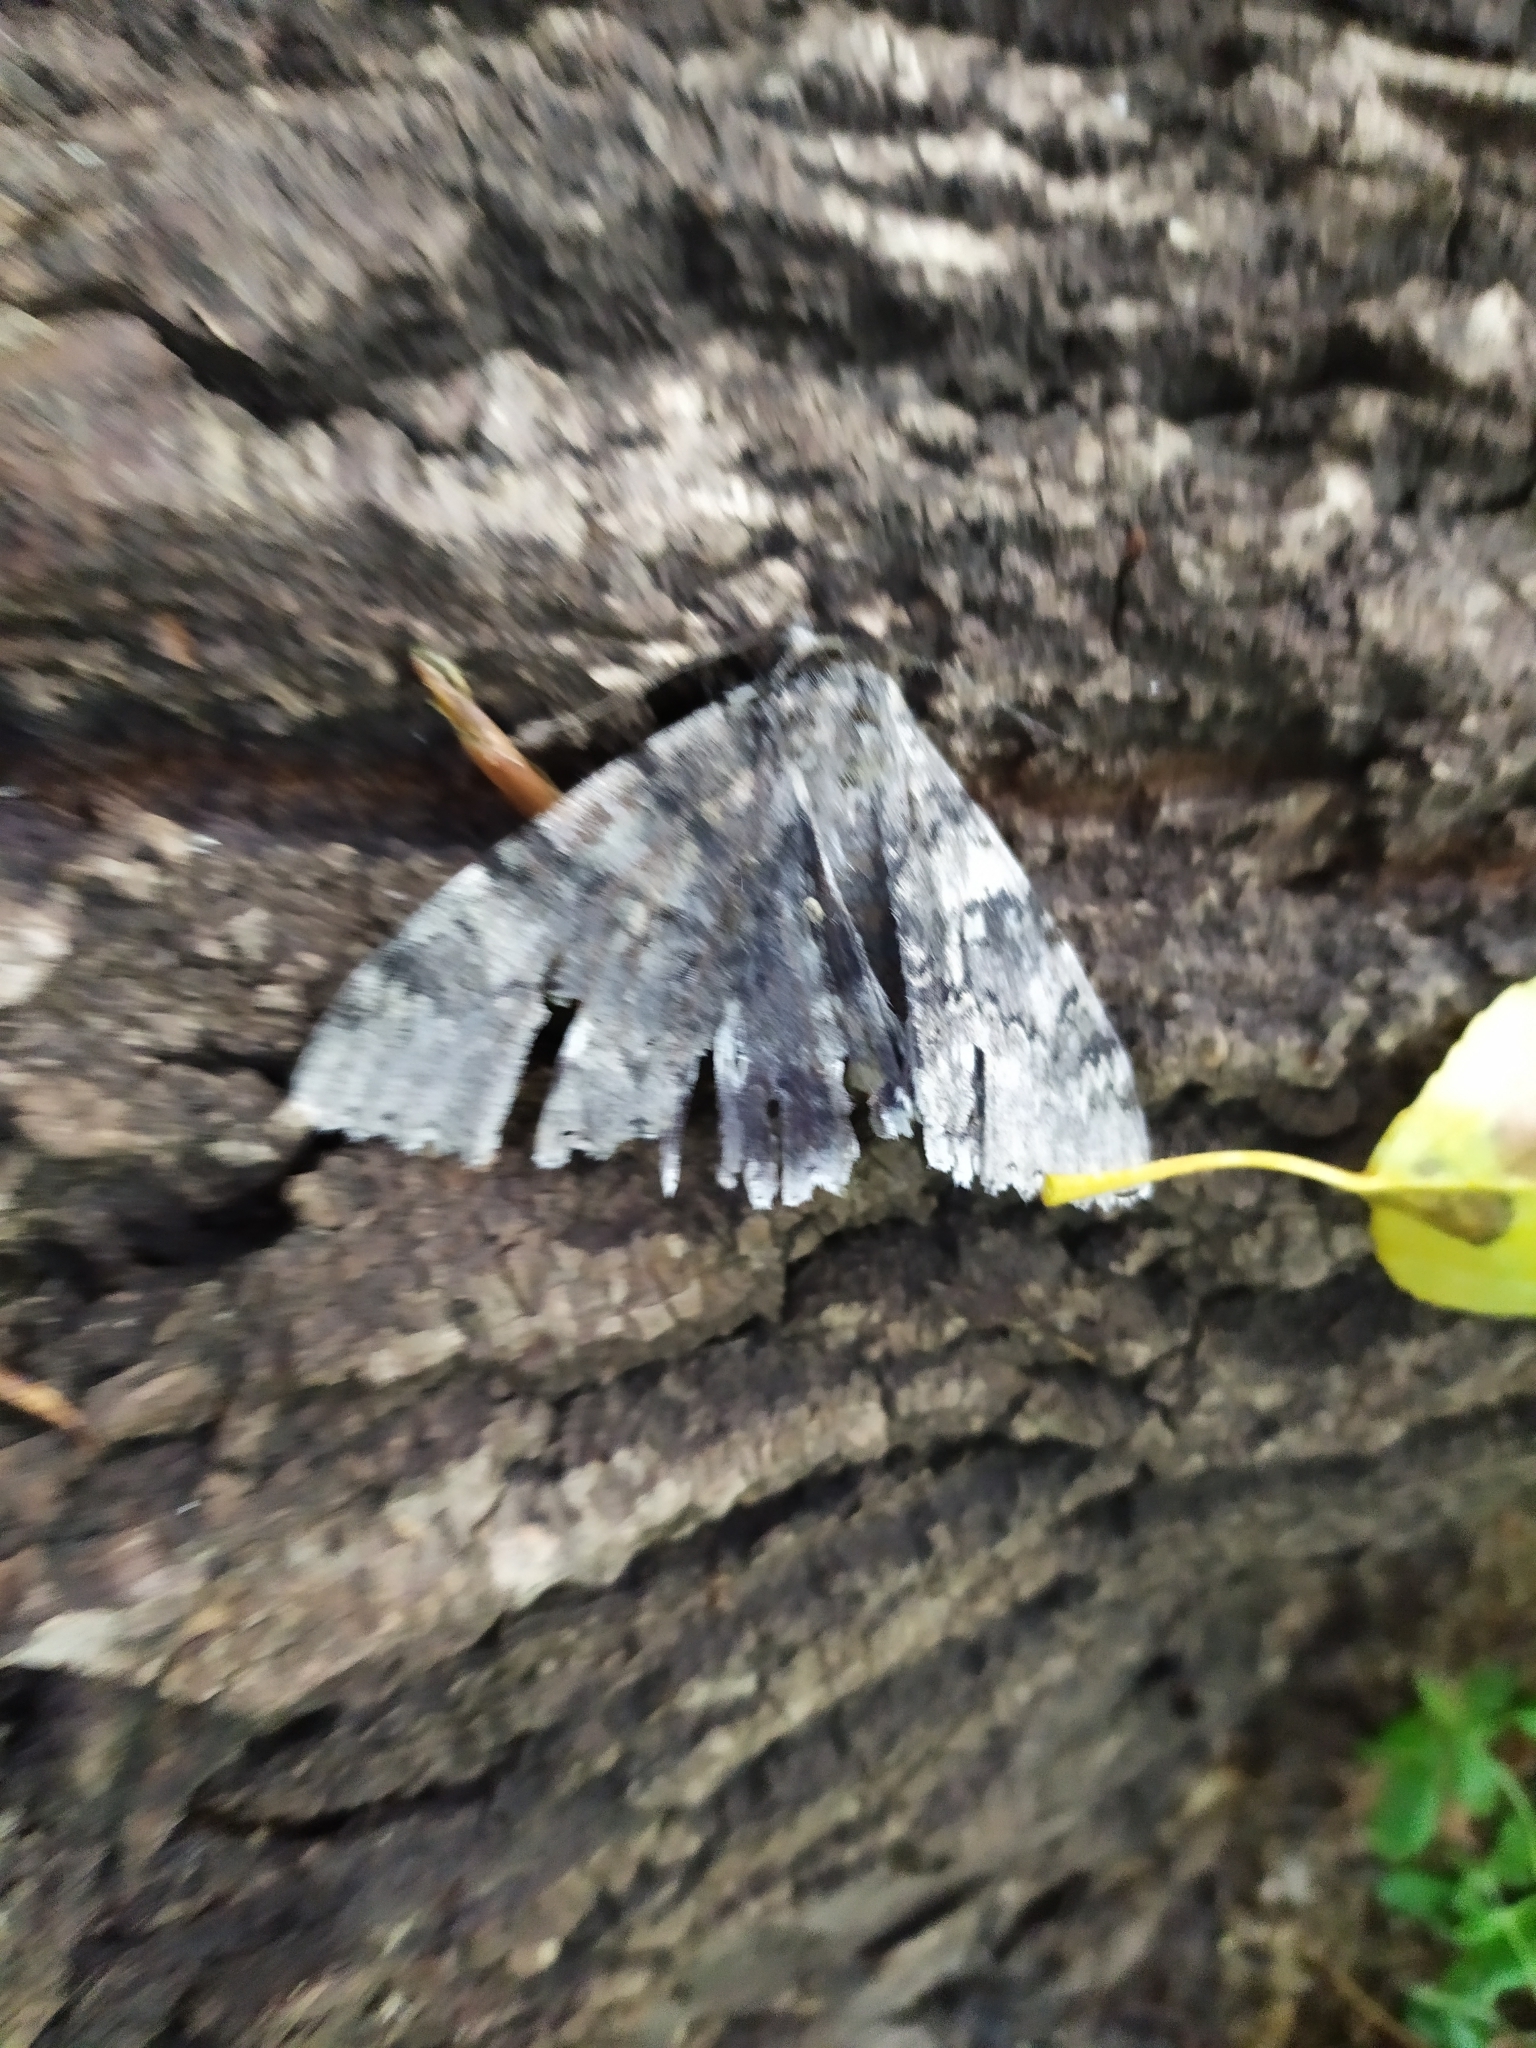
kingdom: Animalia
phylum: Arthropoda
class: Insecta
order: Lepidoptera
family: Erebidae
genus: Catocala
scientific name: Catocala fraxini
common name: Clifden nonpareil
